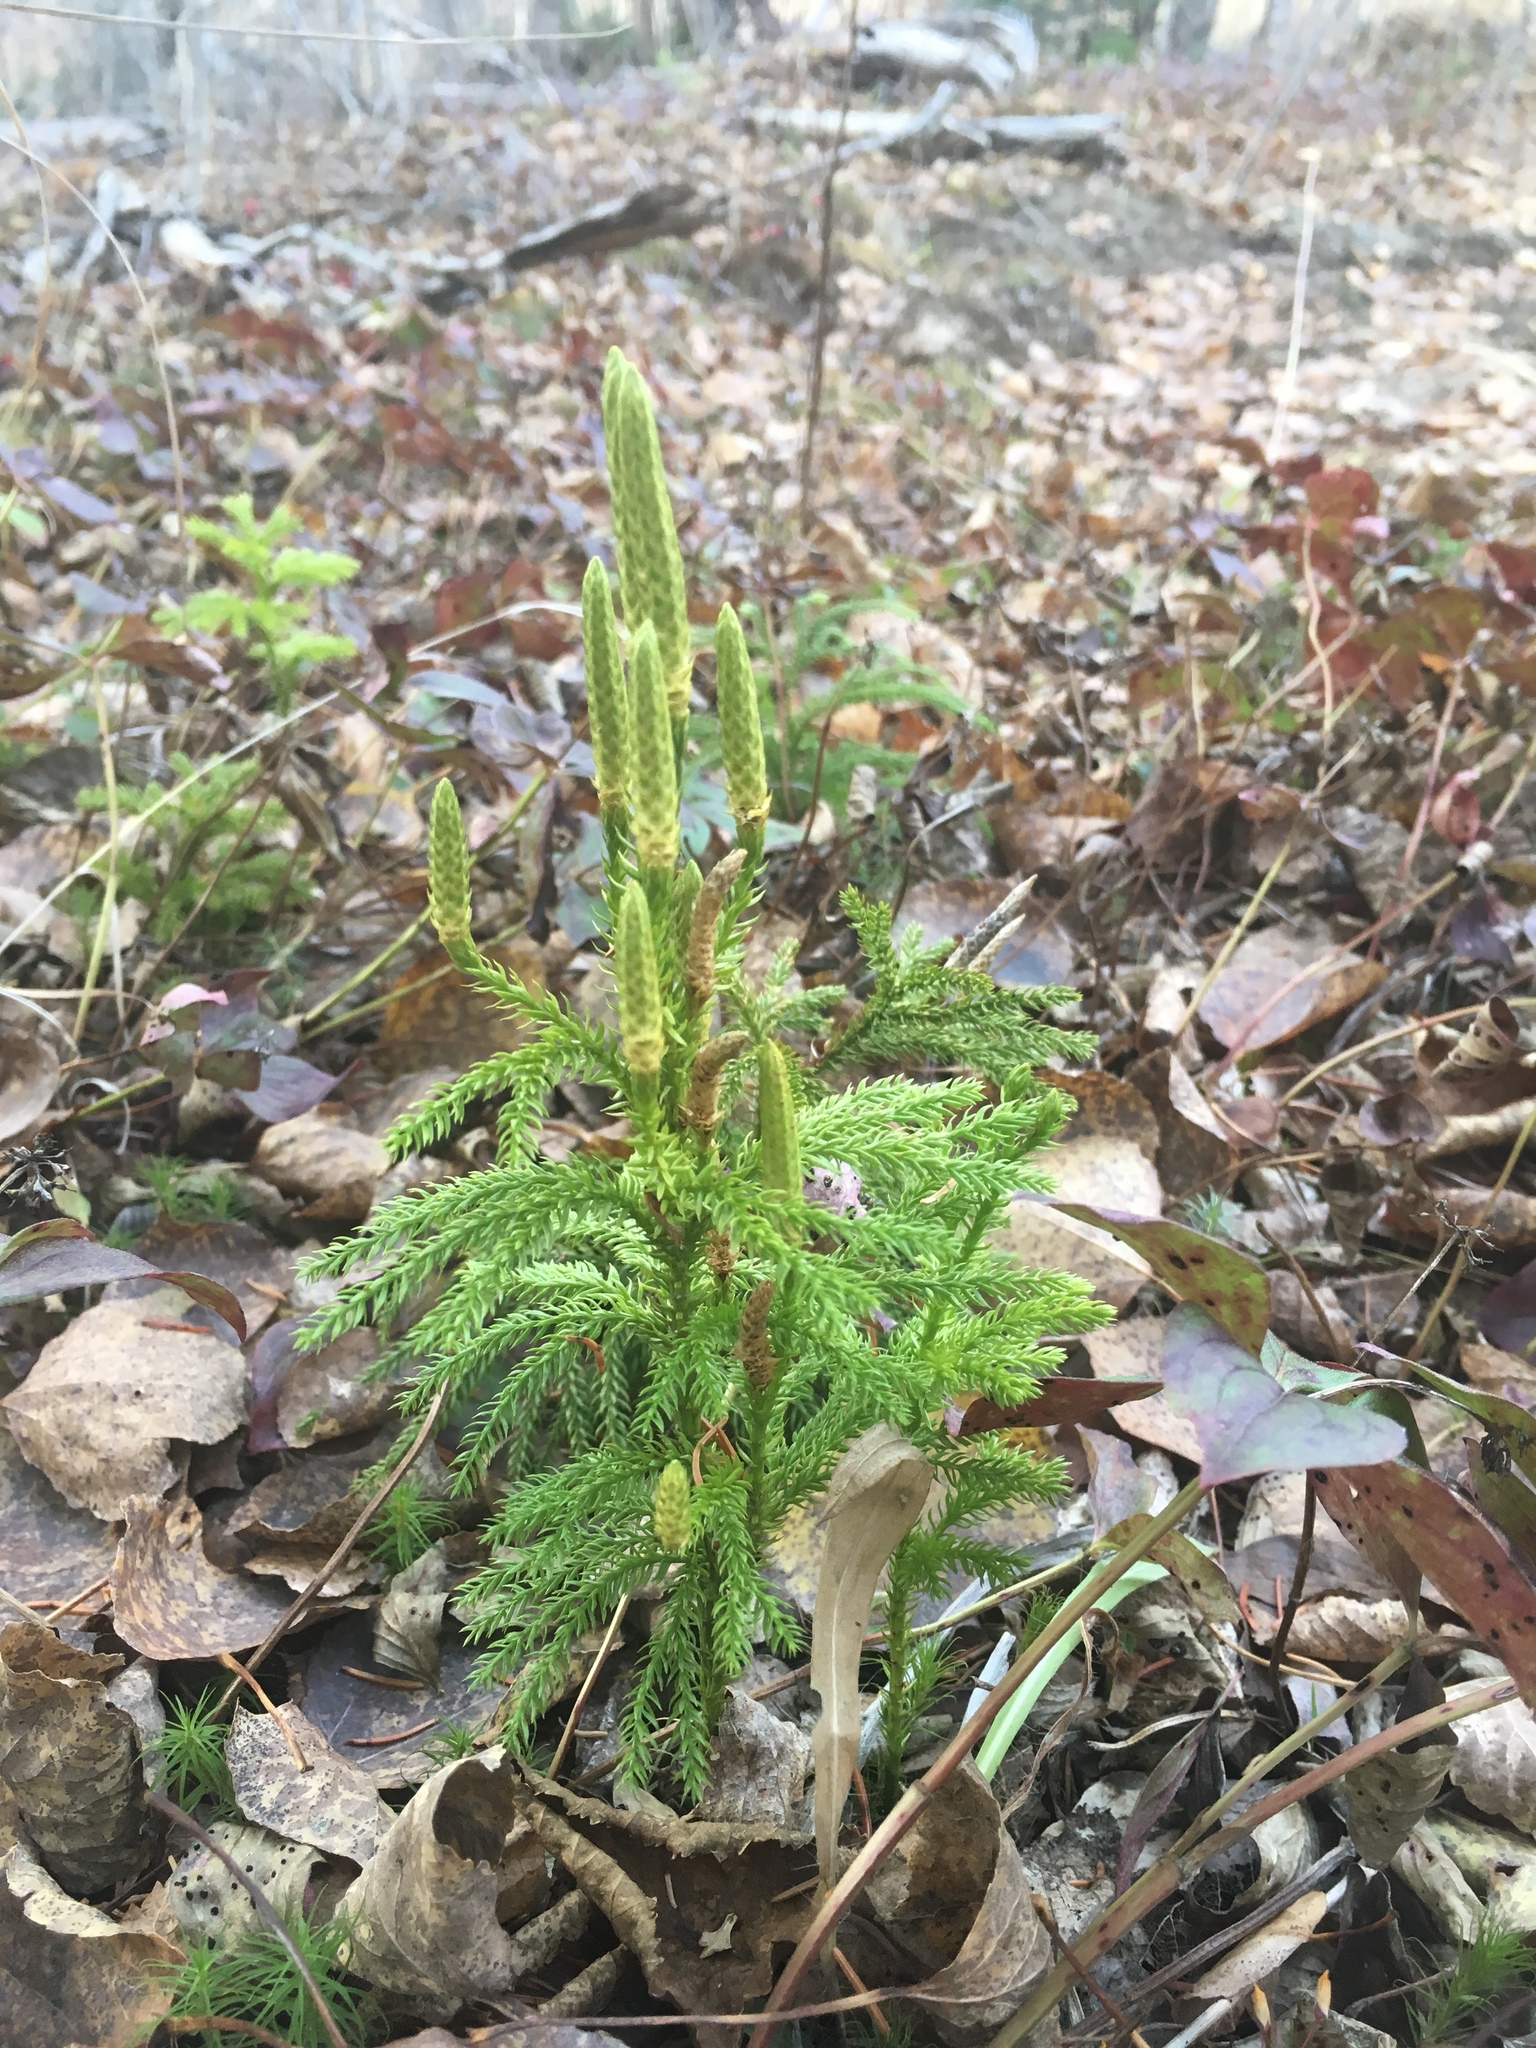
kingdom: Plantae
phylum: Tracheophyta
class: Lycopodiopsida
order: Lycopodiales
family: Lycopodiaceae
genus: Dendrolycopodium
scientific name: Dendrolycopodium dendroideum
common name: Northern tree-clubmoss
